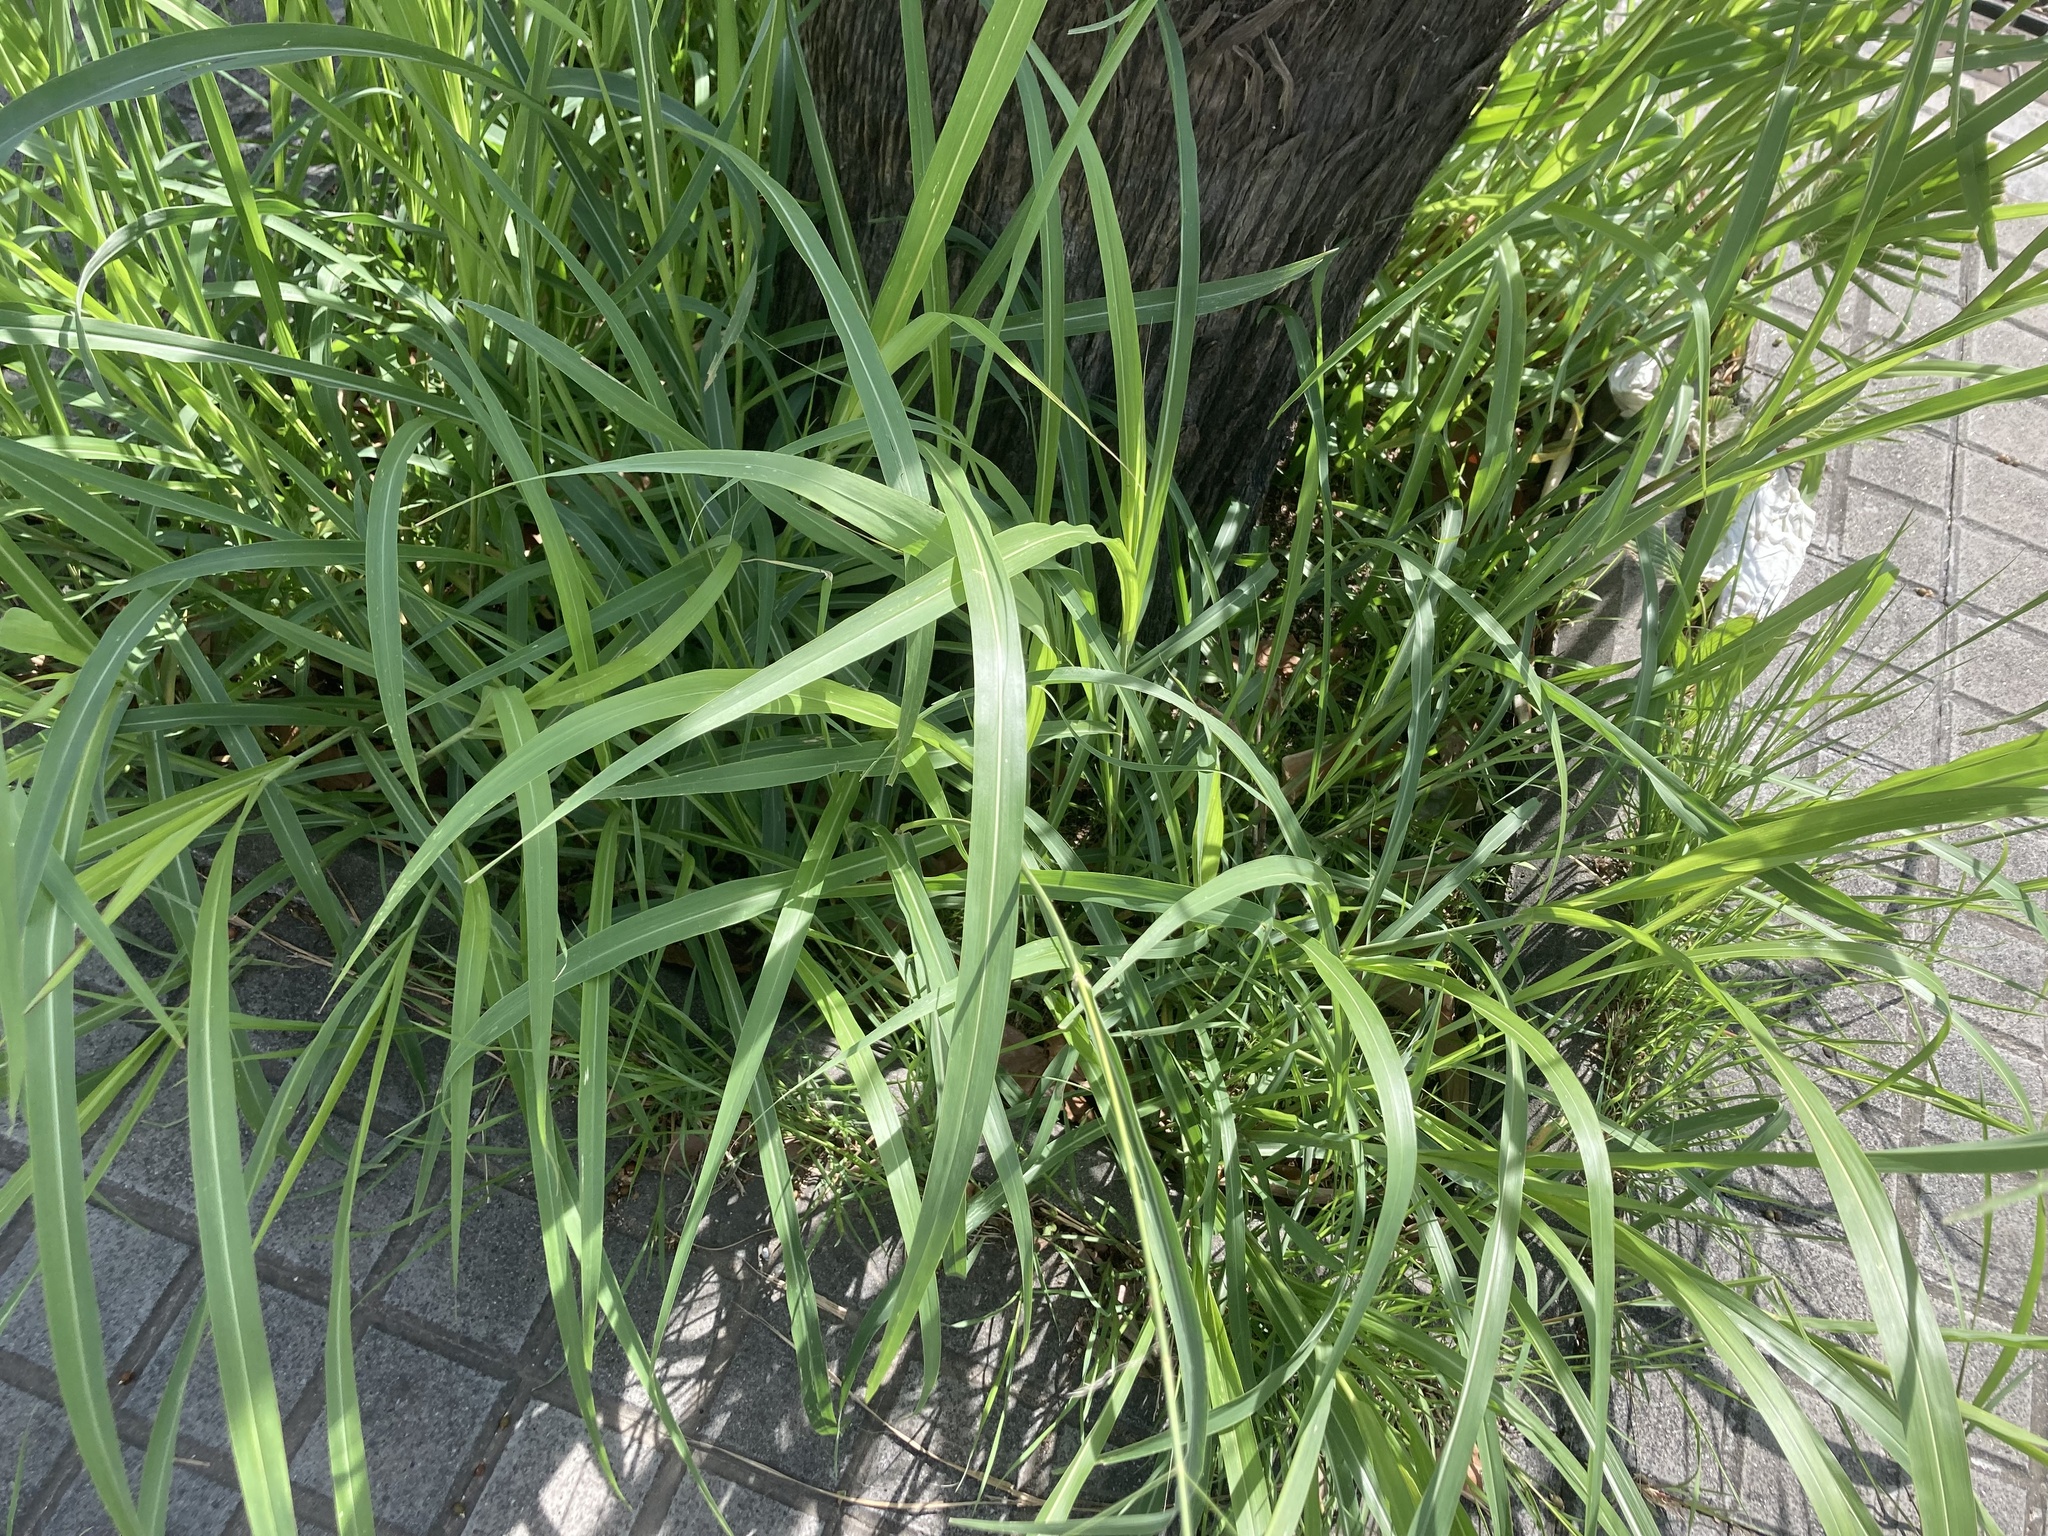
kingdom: Plantae
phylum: Tracheophyta
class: Liliopsida
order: Poales
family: Poaceae
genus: Sorghum
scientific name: Sorghum halepense
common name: Johnson-grass
